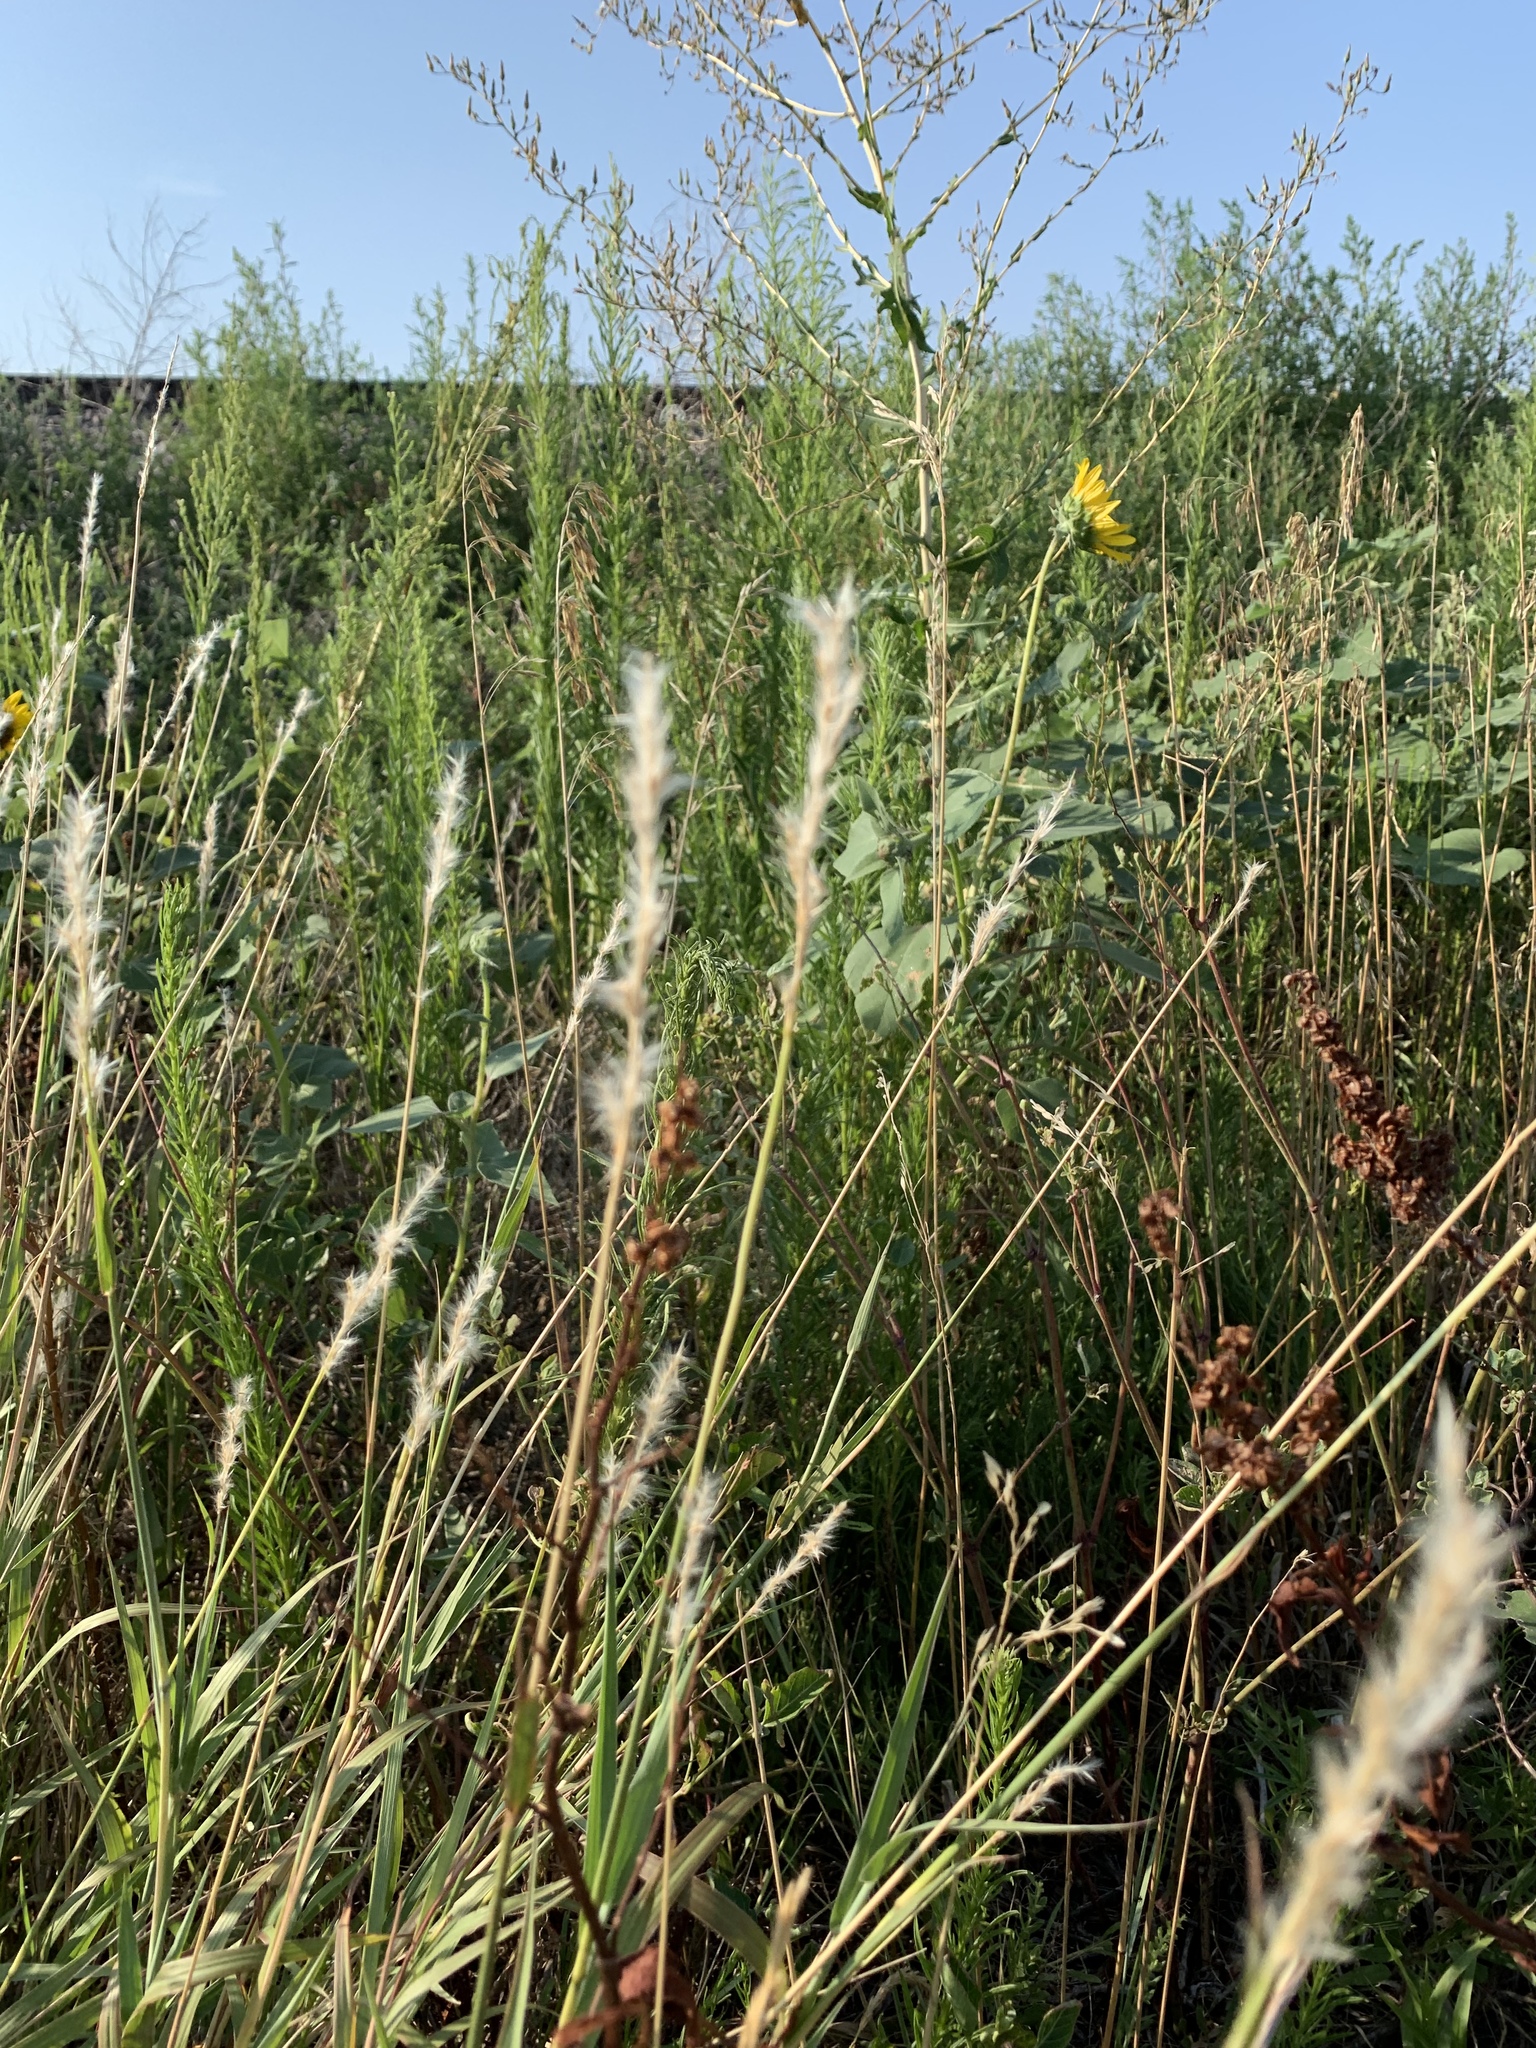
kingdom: Plantae
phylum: Tracheophyta
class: Liliopsida
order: Poales
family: Poaceae
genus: Bothriochloa
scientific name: Bothriochloa torreyana
